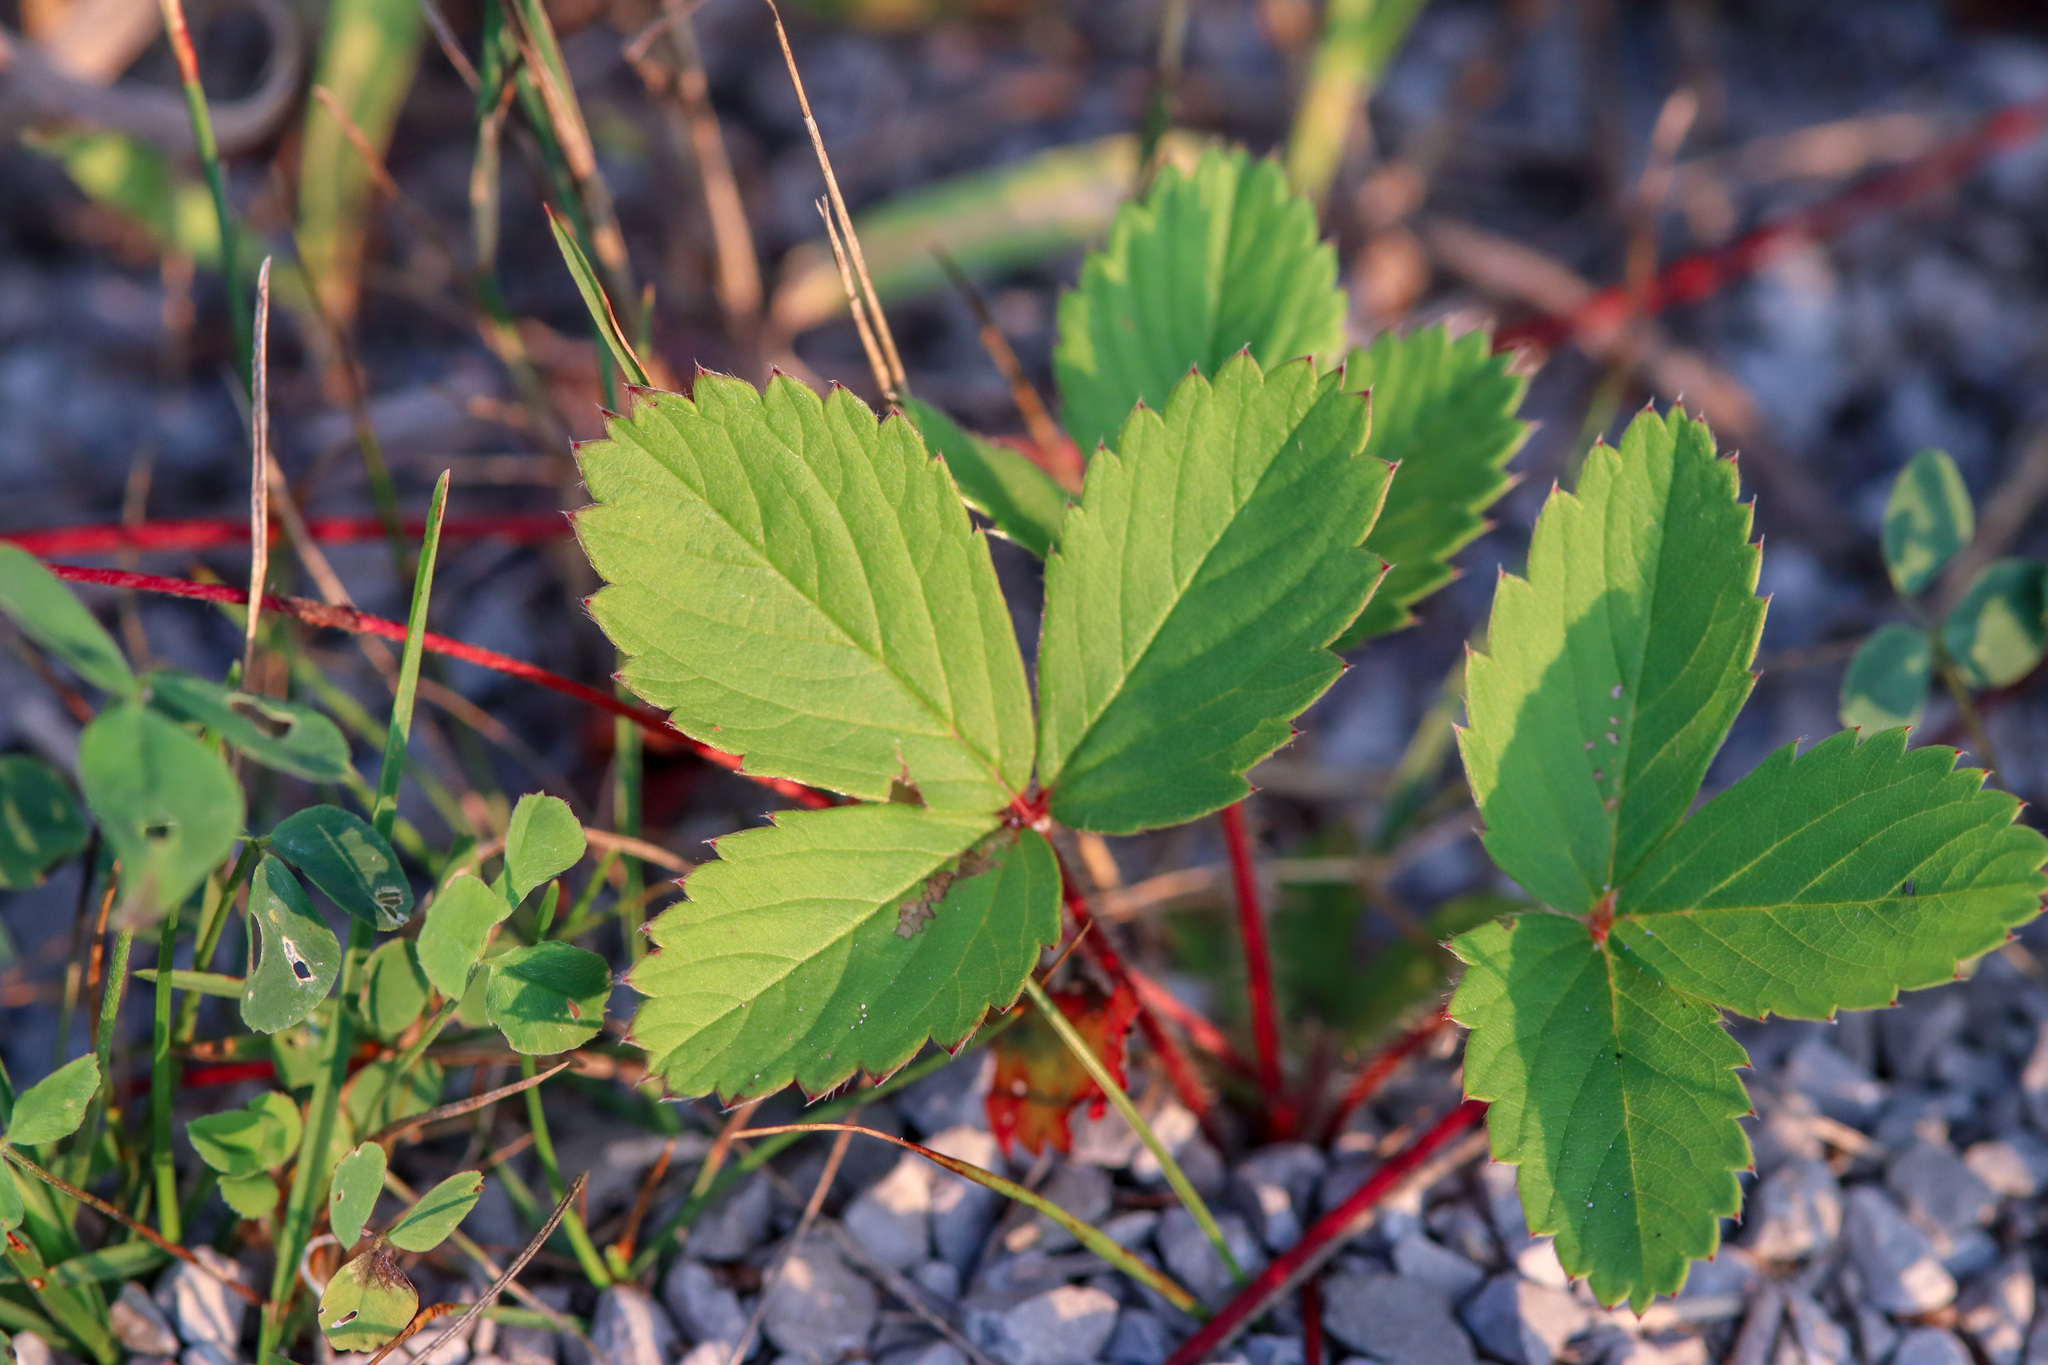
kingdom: Plantae
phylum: Tracheophyta
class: Magnoliopsida
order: Rosales
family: Rosaceae
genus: Fragaria
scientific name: Fragaria virginiana
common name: Thickleaved wild strawberry
